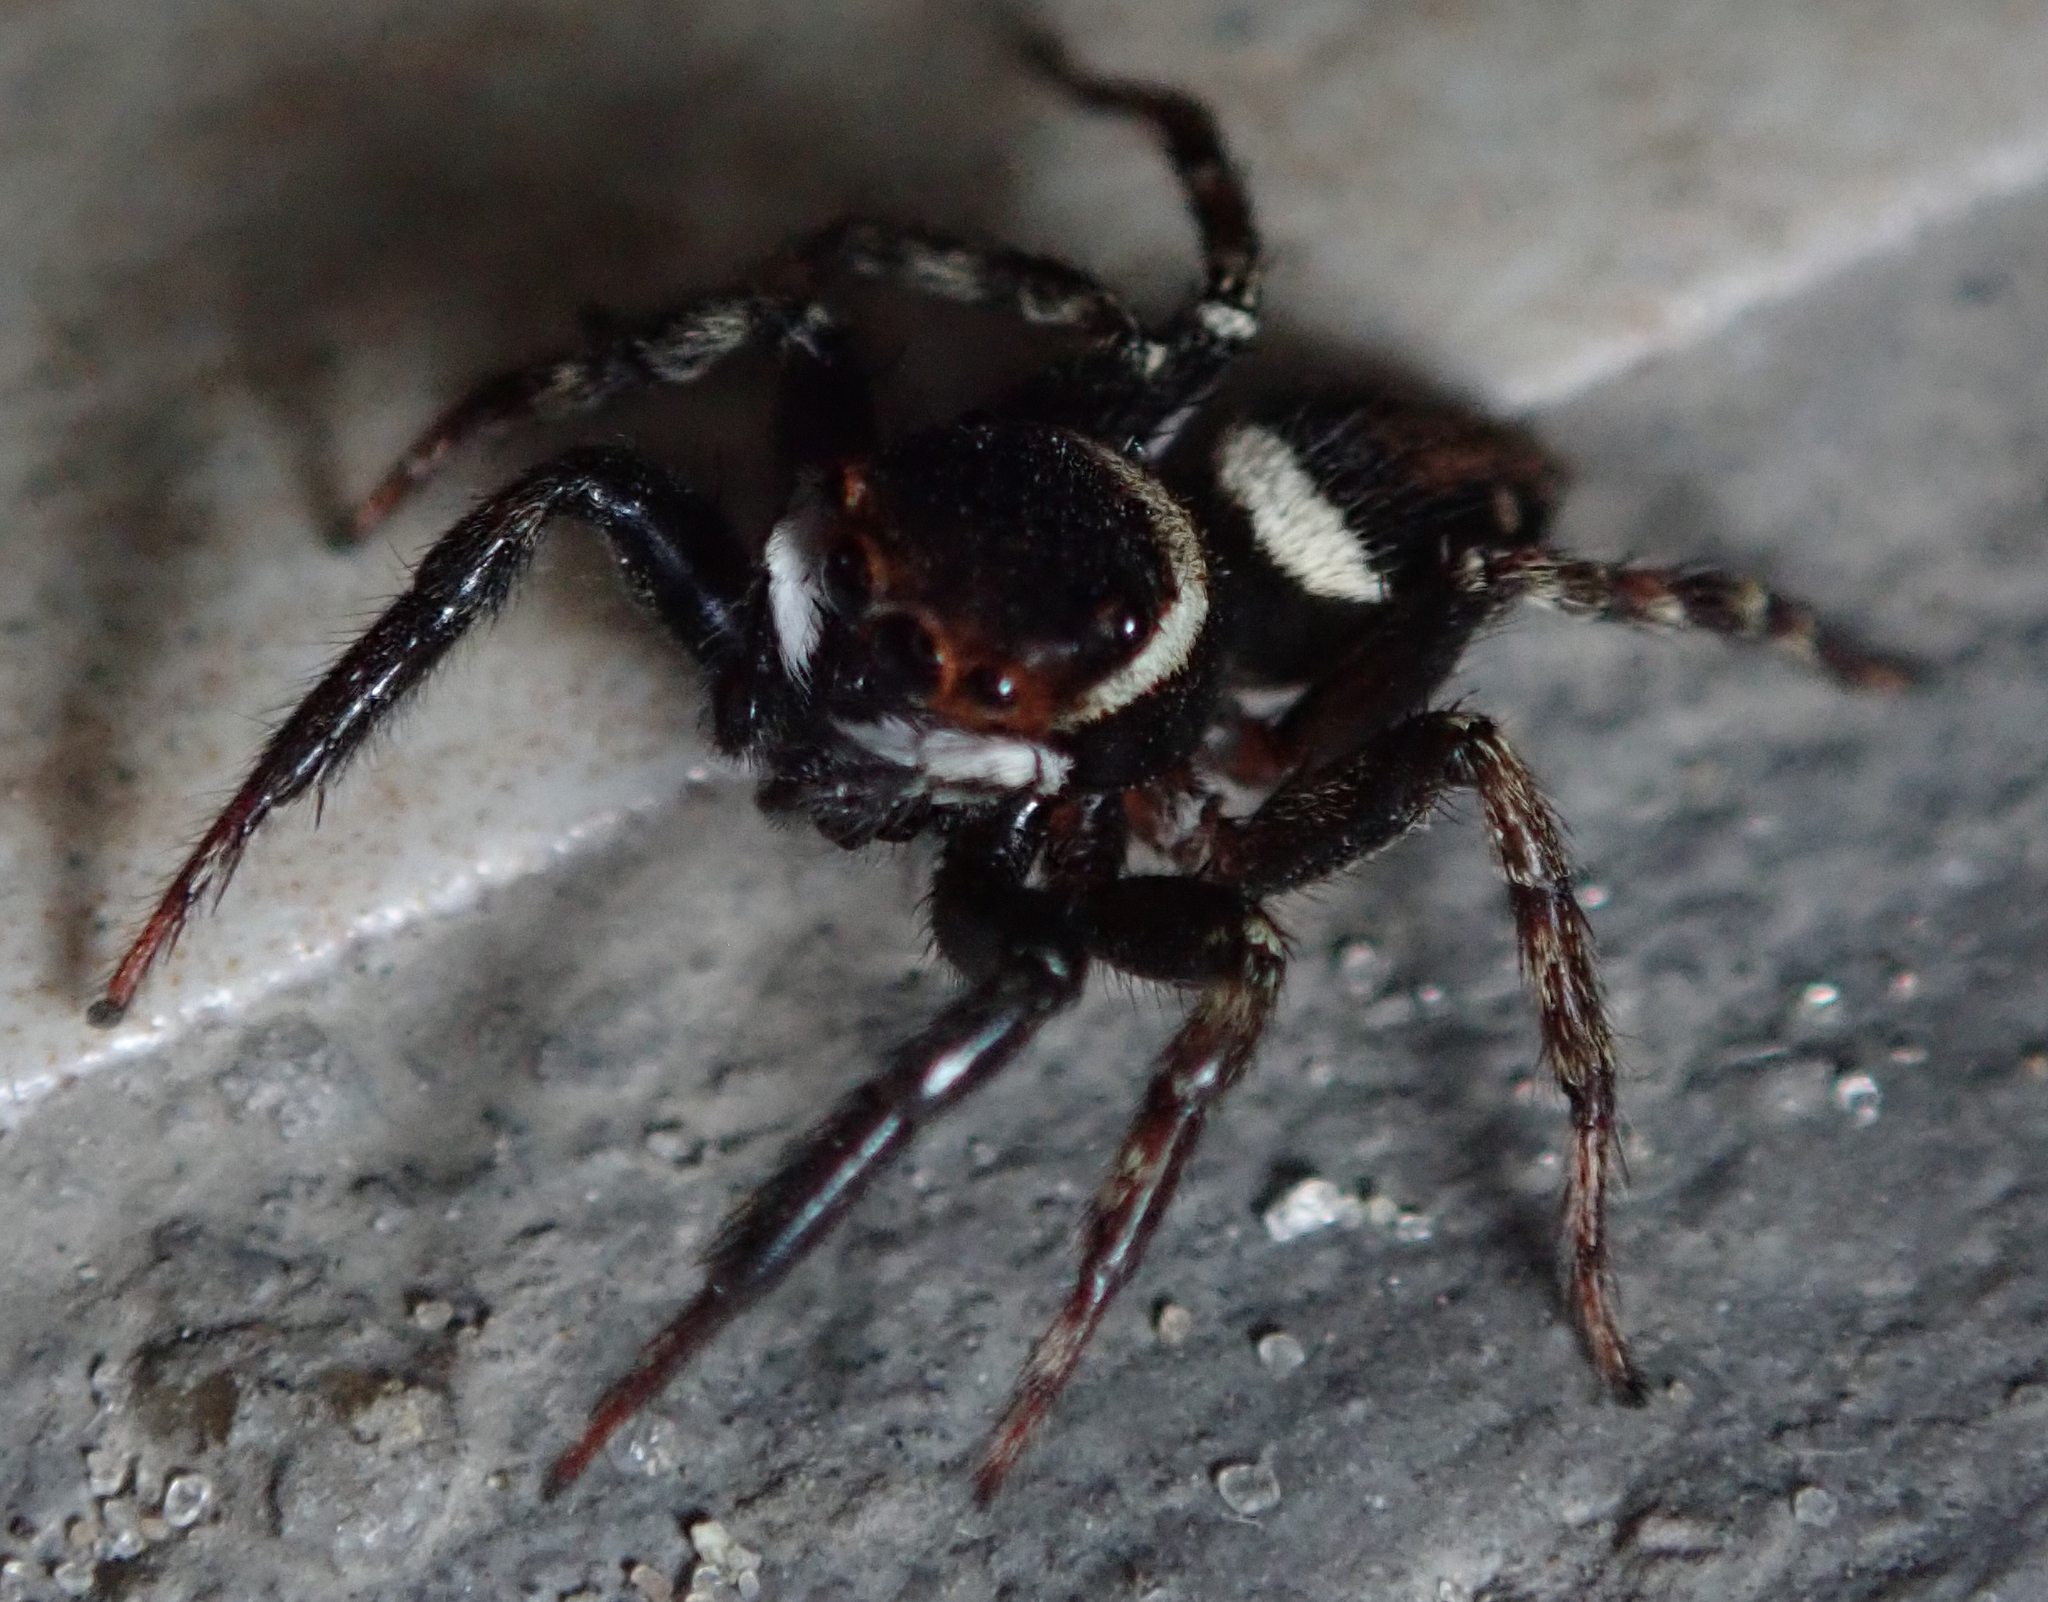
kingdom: Animalia
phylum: Arthropoda
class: Arachnida
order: Araneae
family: Salticidae
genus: Hasarius
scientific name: Hasarius adansoni
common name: Jumping spider
